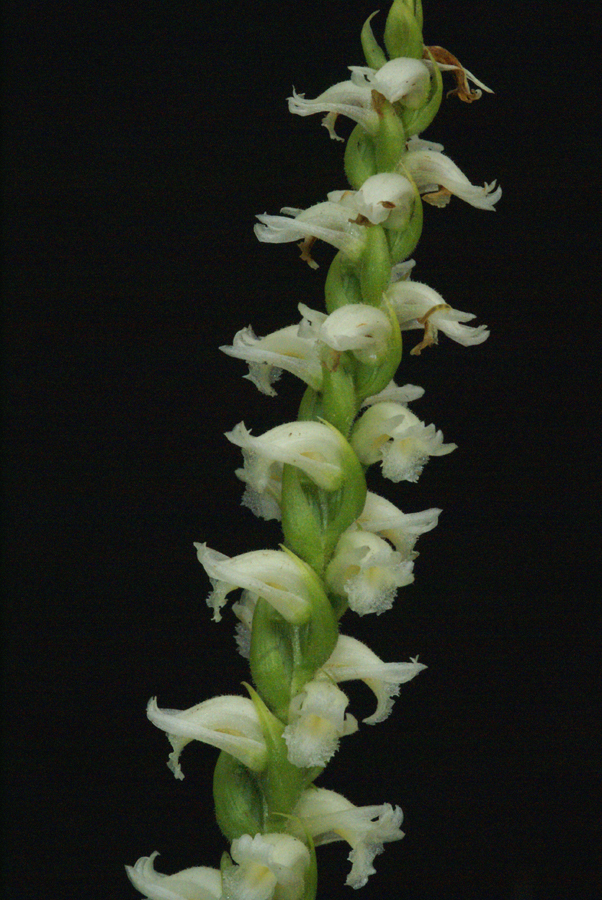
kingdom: Plantae
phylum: Tracheophyta
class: Liliopsida
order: Asparagales
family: Orchidaceae
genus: Spiranthes
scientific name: Spiranthes ochroleuca
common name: Yellow ladies'-tresses
